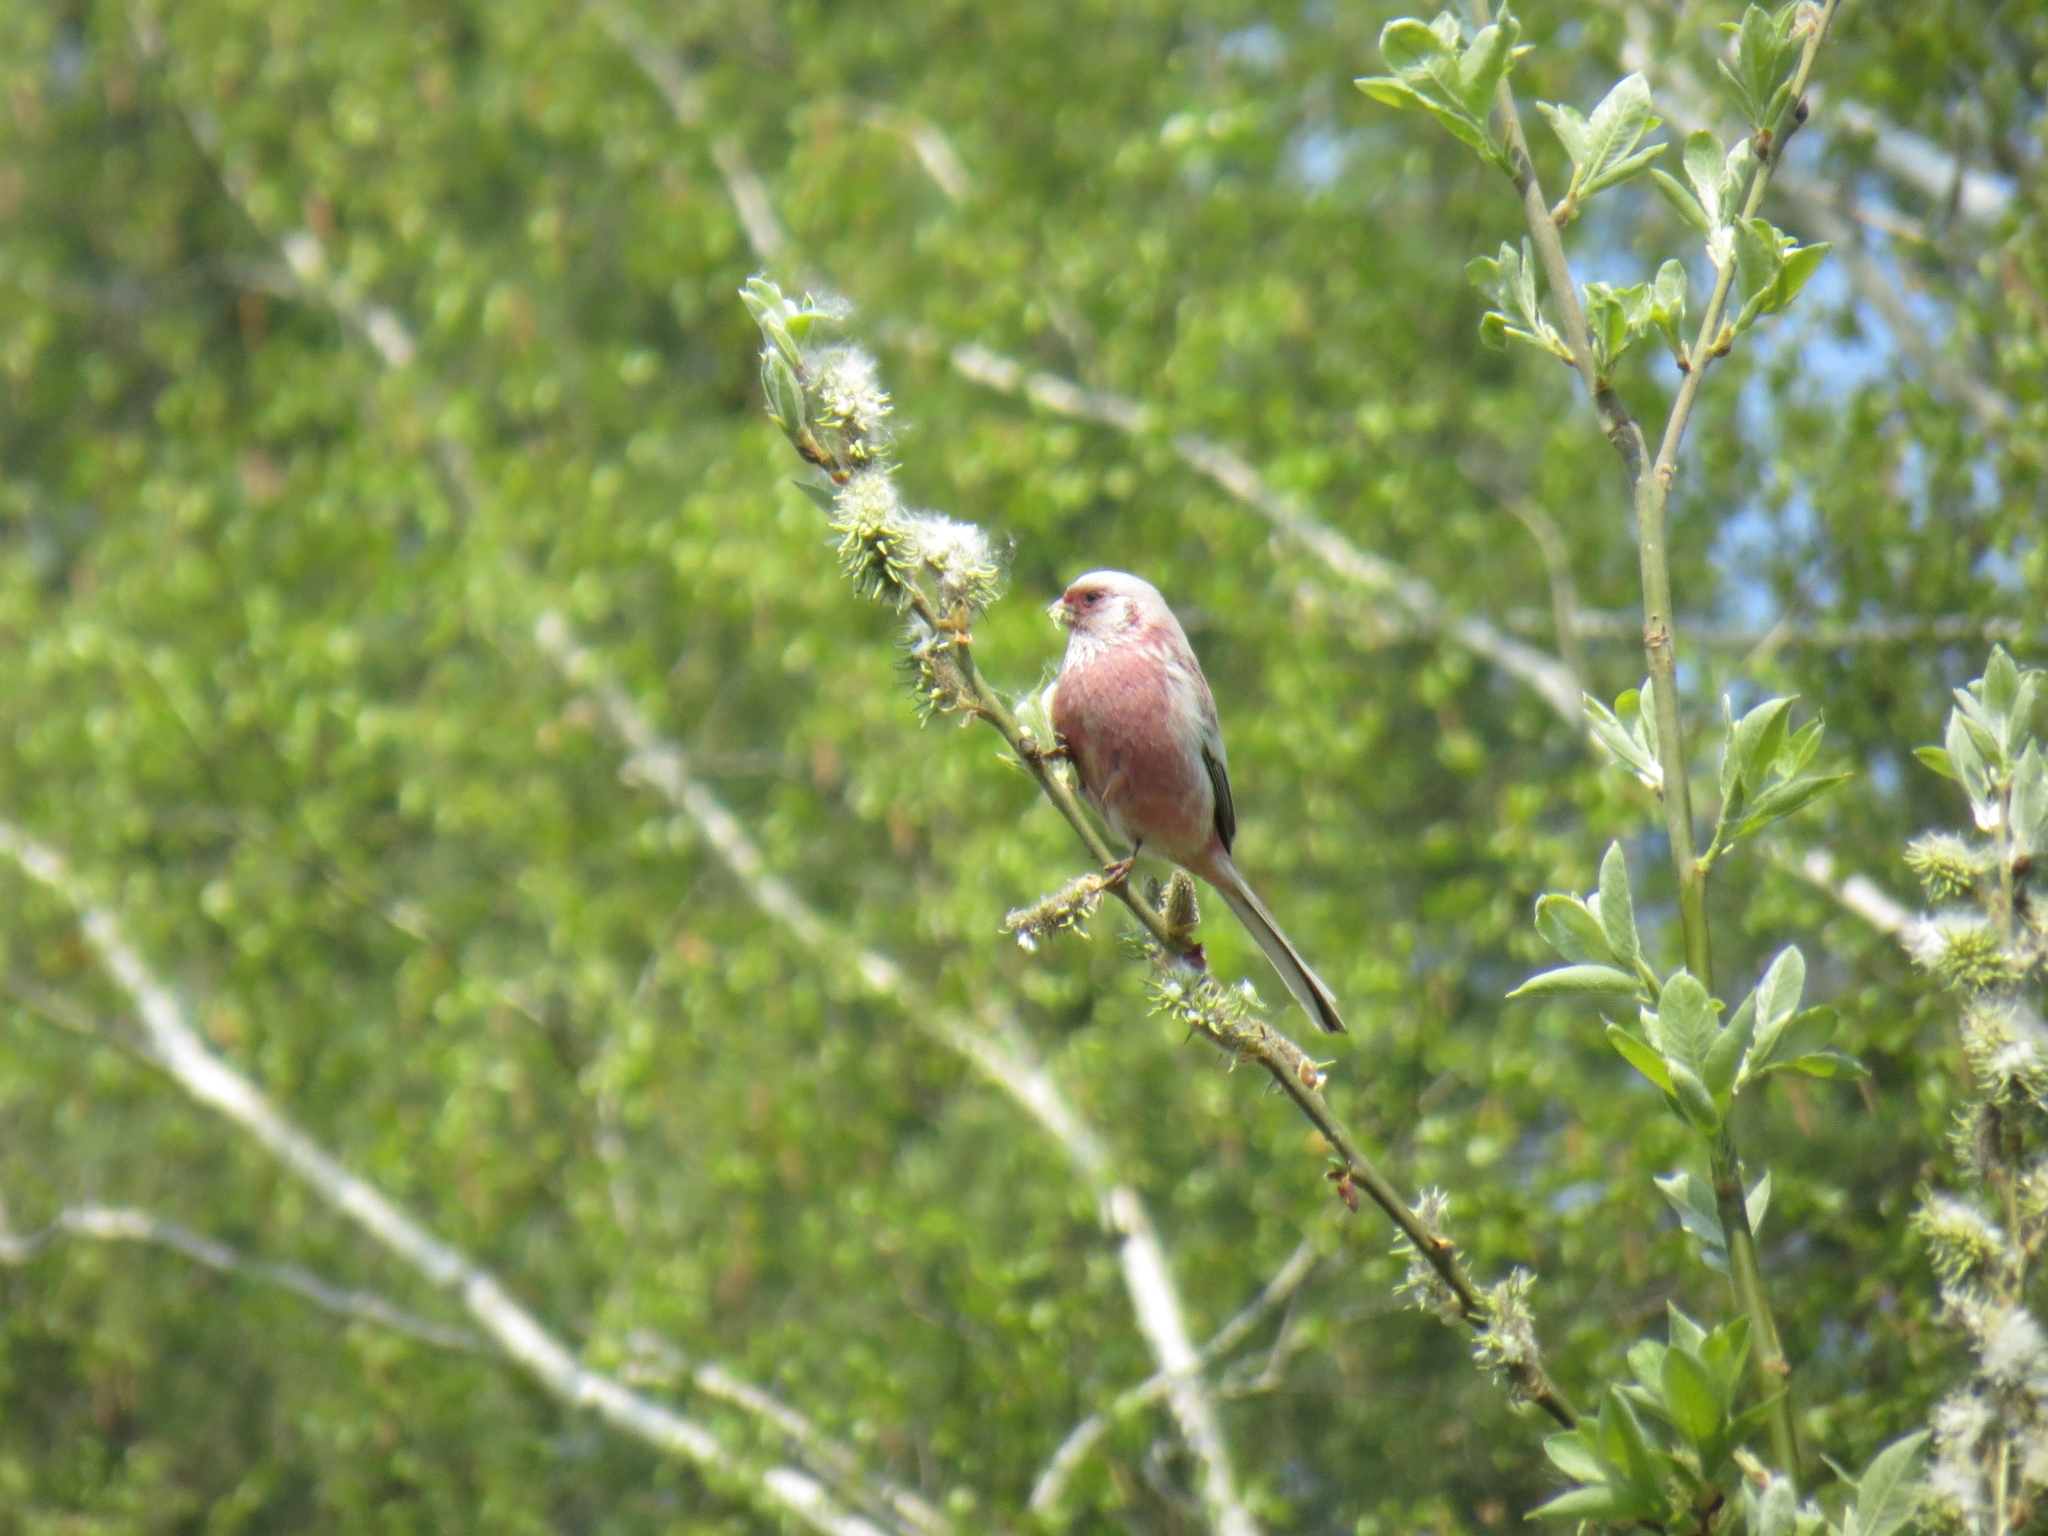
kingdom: Animalia
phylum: Chordata
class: Aves
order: Passeriformes
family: Fringillidae
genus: Carpodacus
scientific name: Carpodacus sibiricus
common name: Long-tailed rosefinch
